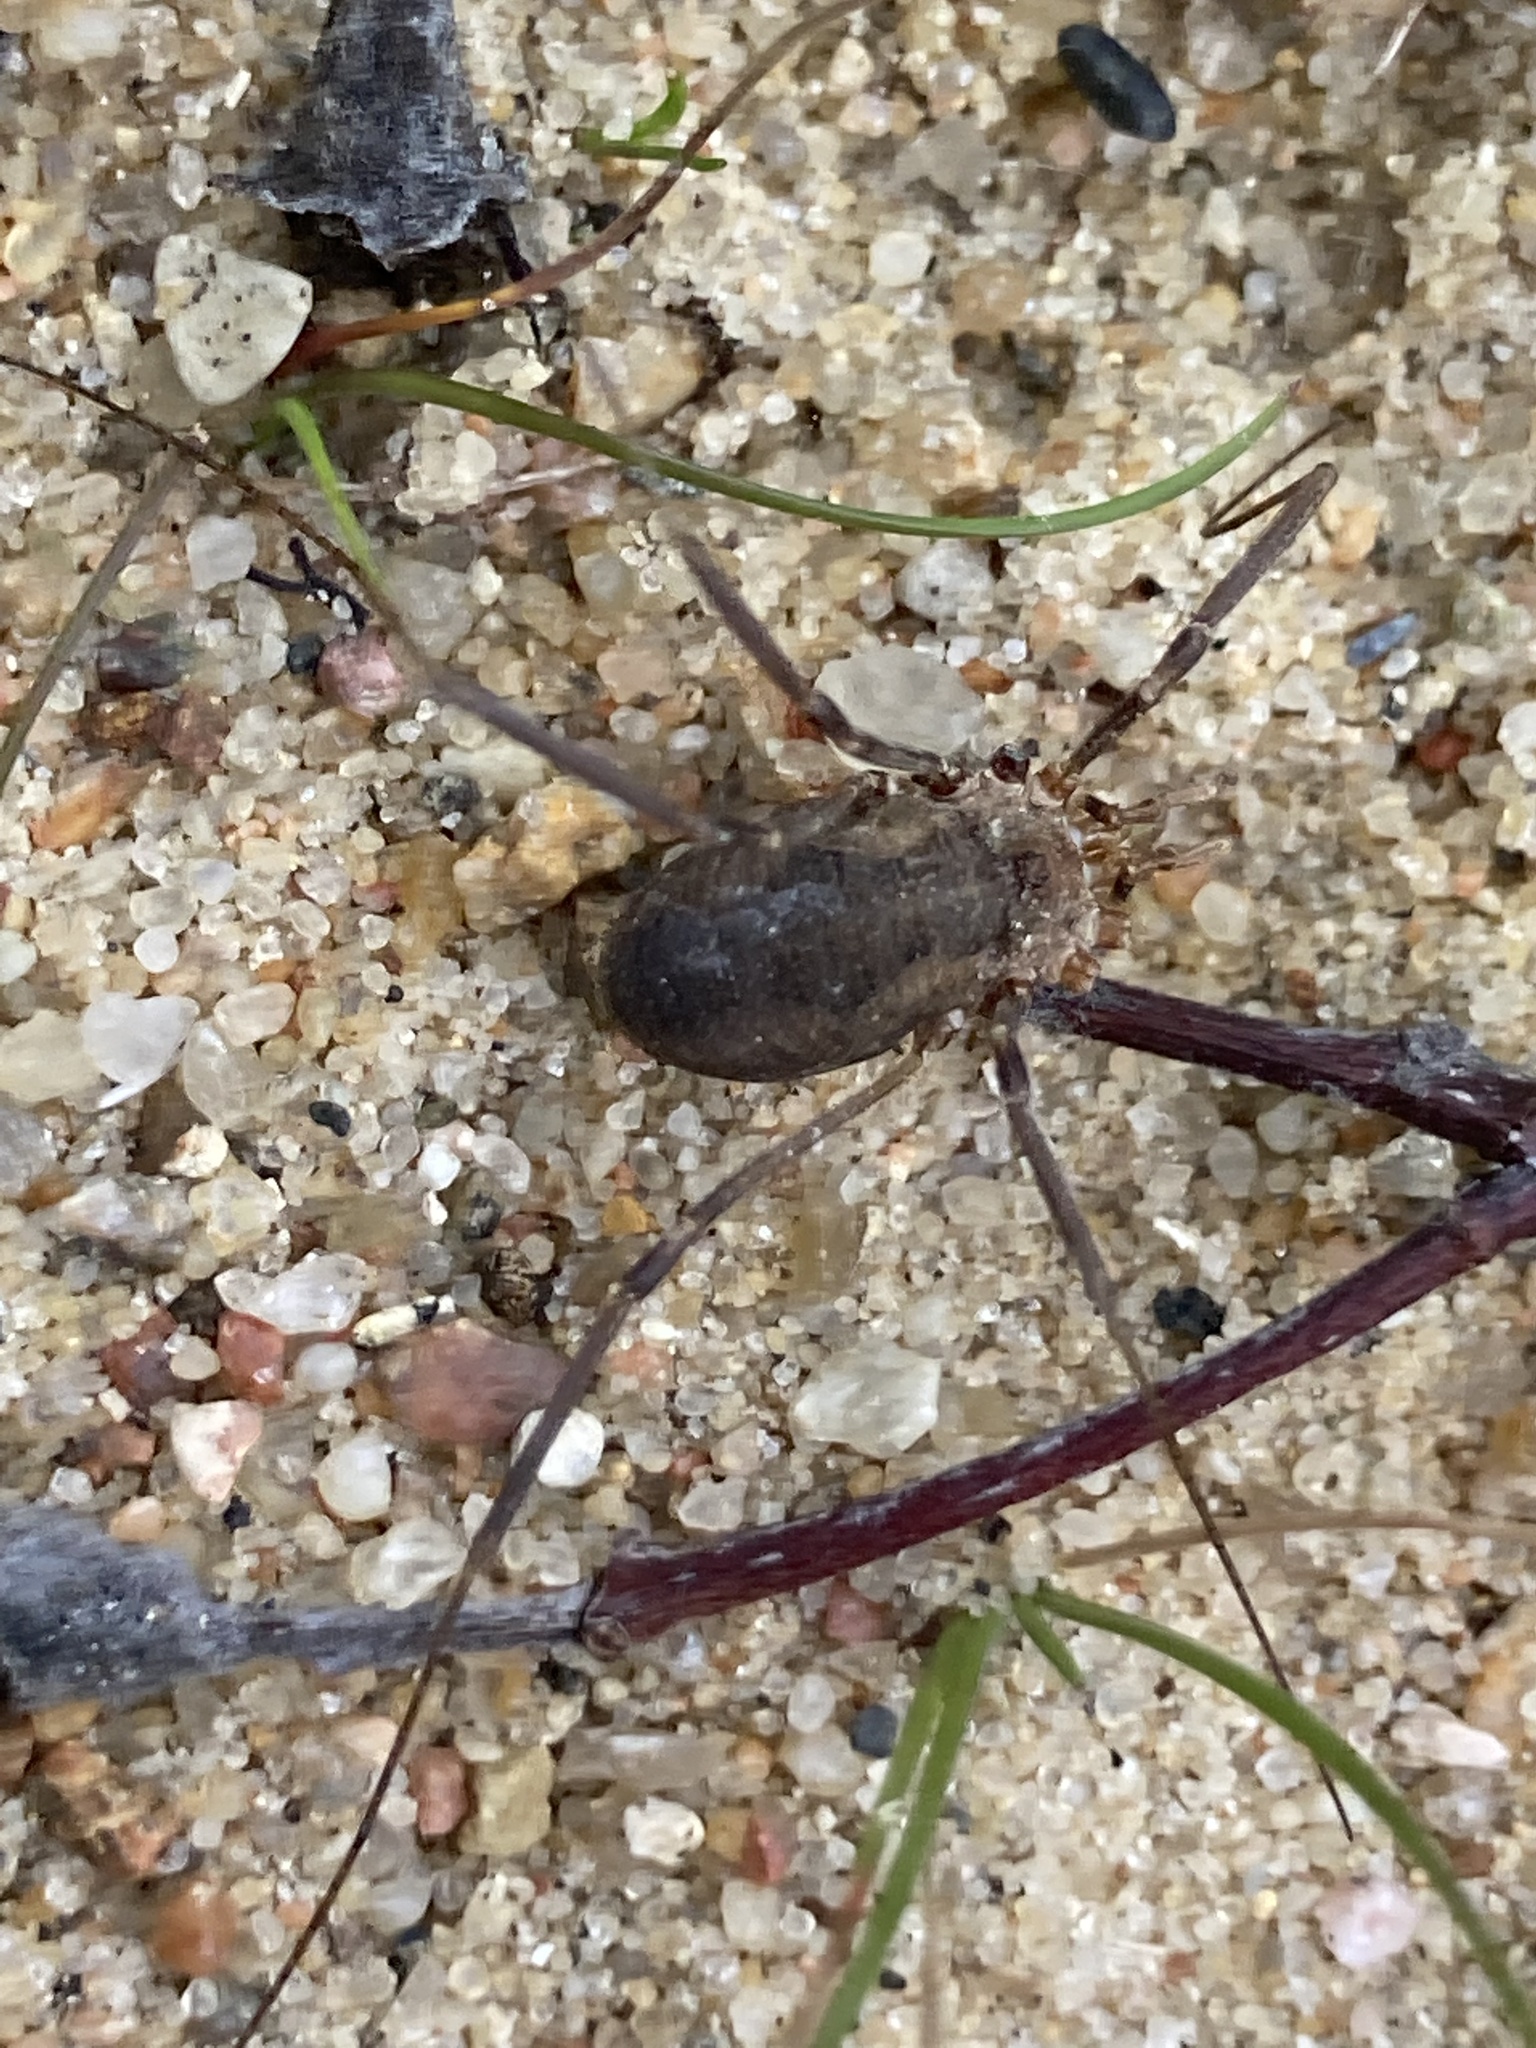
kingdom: Animalia
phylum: Arthropoda
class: Arachnida
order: Opiliones
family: Phalangiidae
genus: Phalangium
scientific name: Phalangium opilio
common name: Daddy longleg
